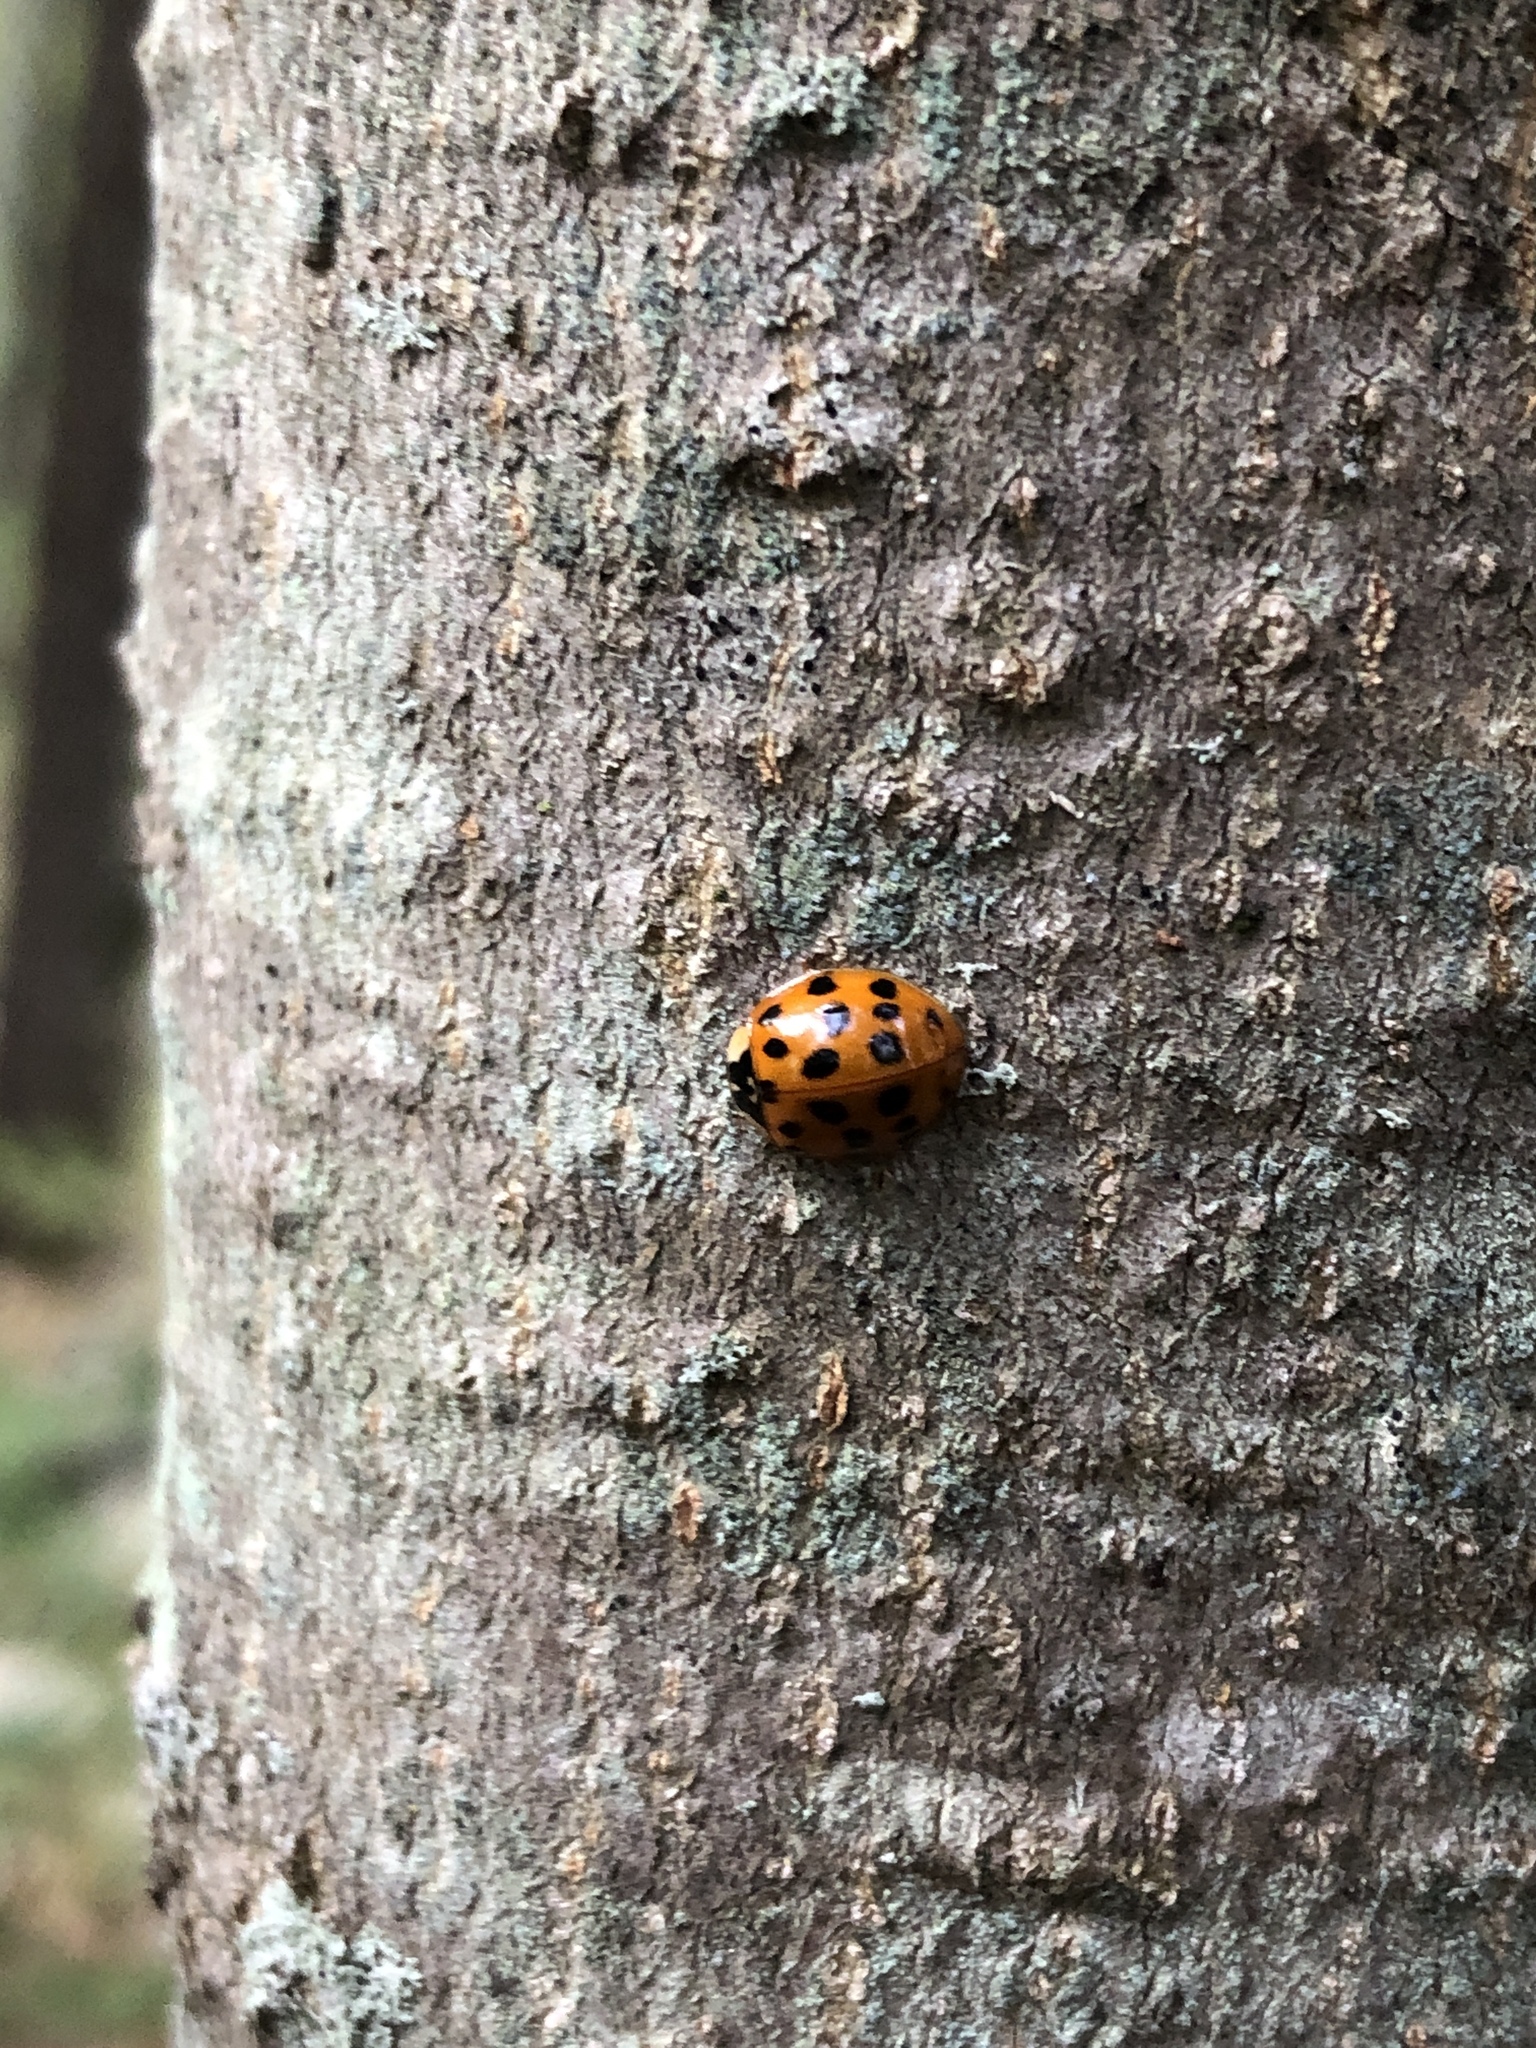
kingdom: Animalia
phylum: Arthropoda
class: Insecta
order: Coleoptera
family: Coccinellidae
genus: Harmonia
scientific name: Harmonia axyridis
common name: Harlequin ladybird
